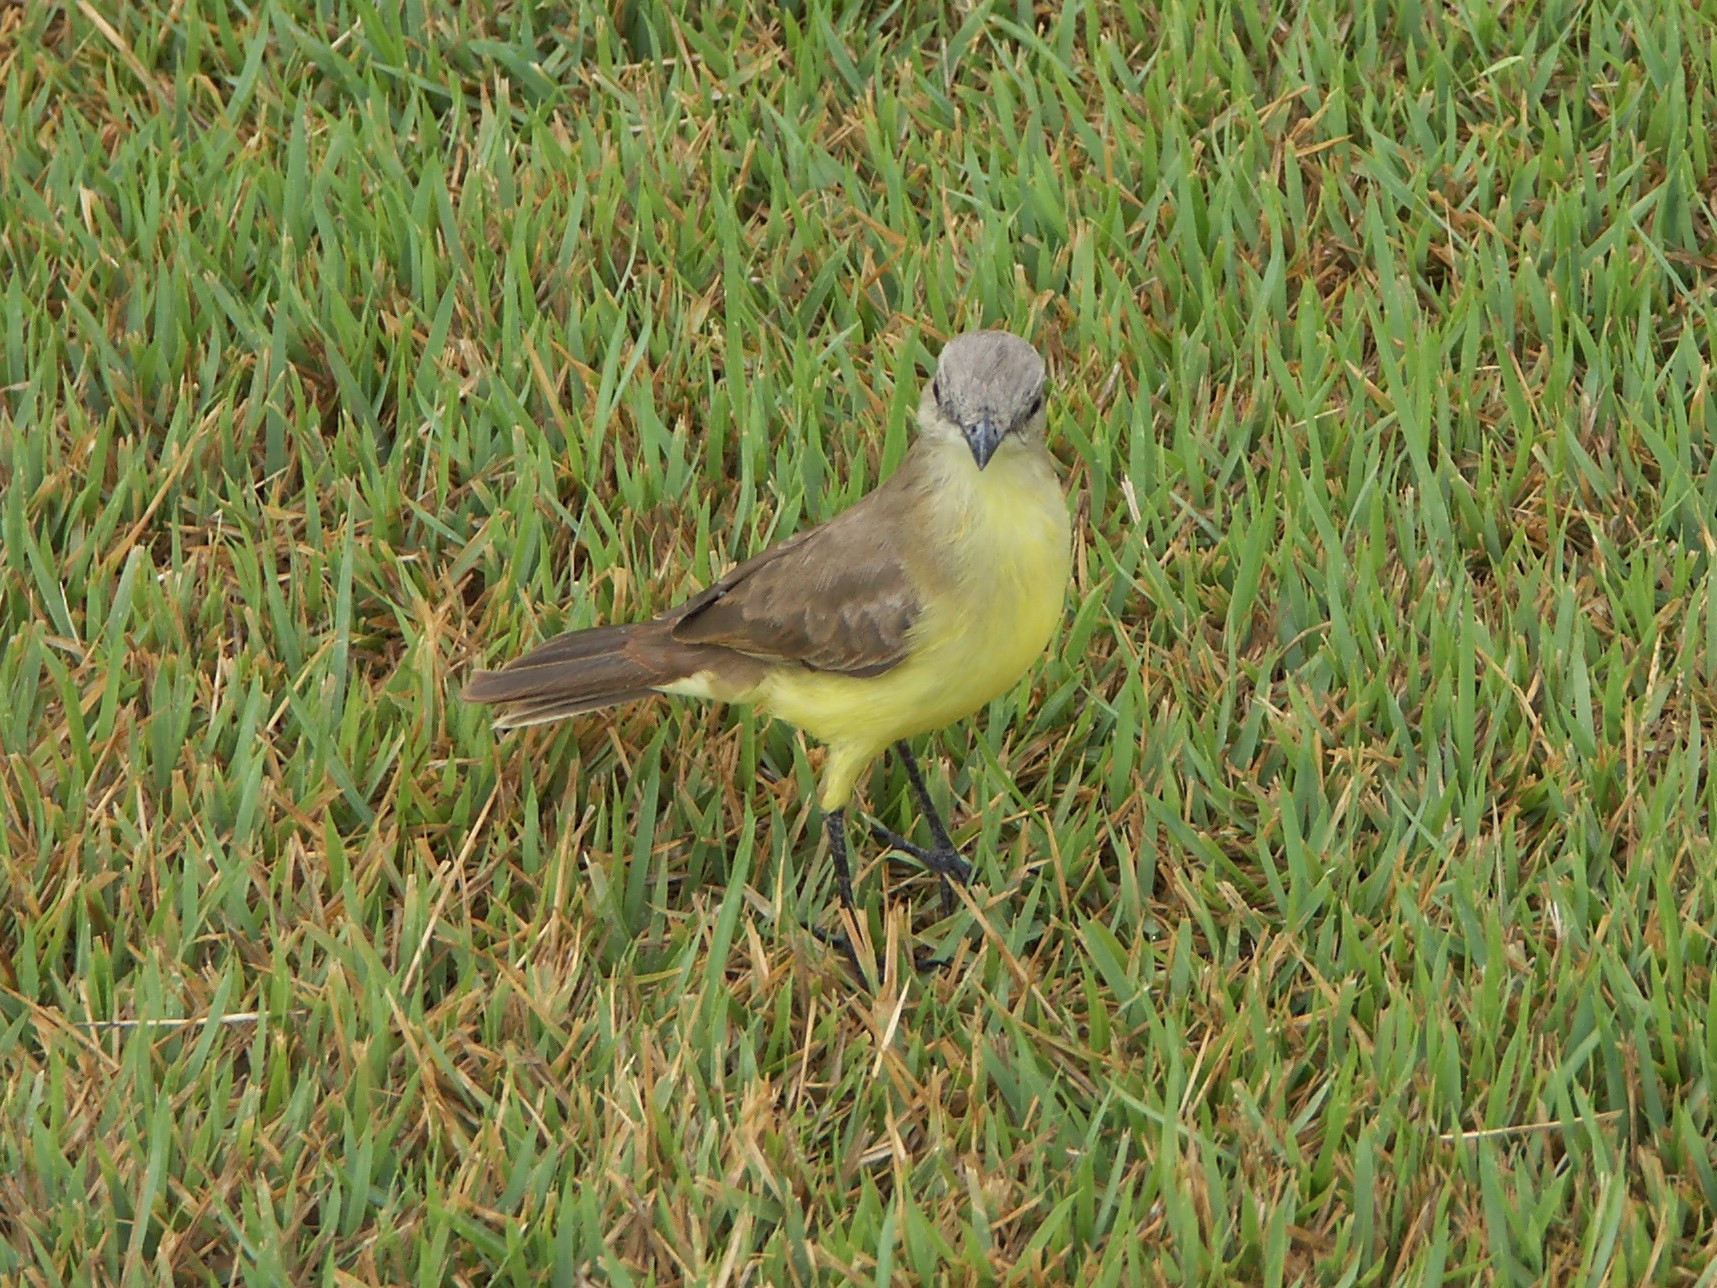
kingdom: Animalia
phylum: Chordata
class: Aves
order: Passeriformes
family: Tyrannidae
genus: Machetornis
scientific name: Machetornis rixosa
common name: Cattle tyrant
